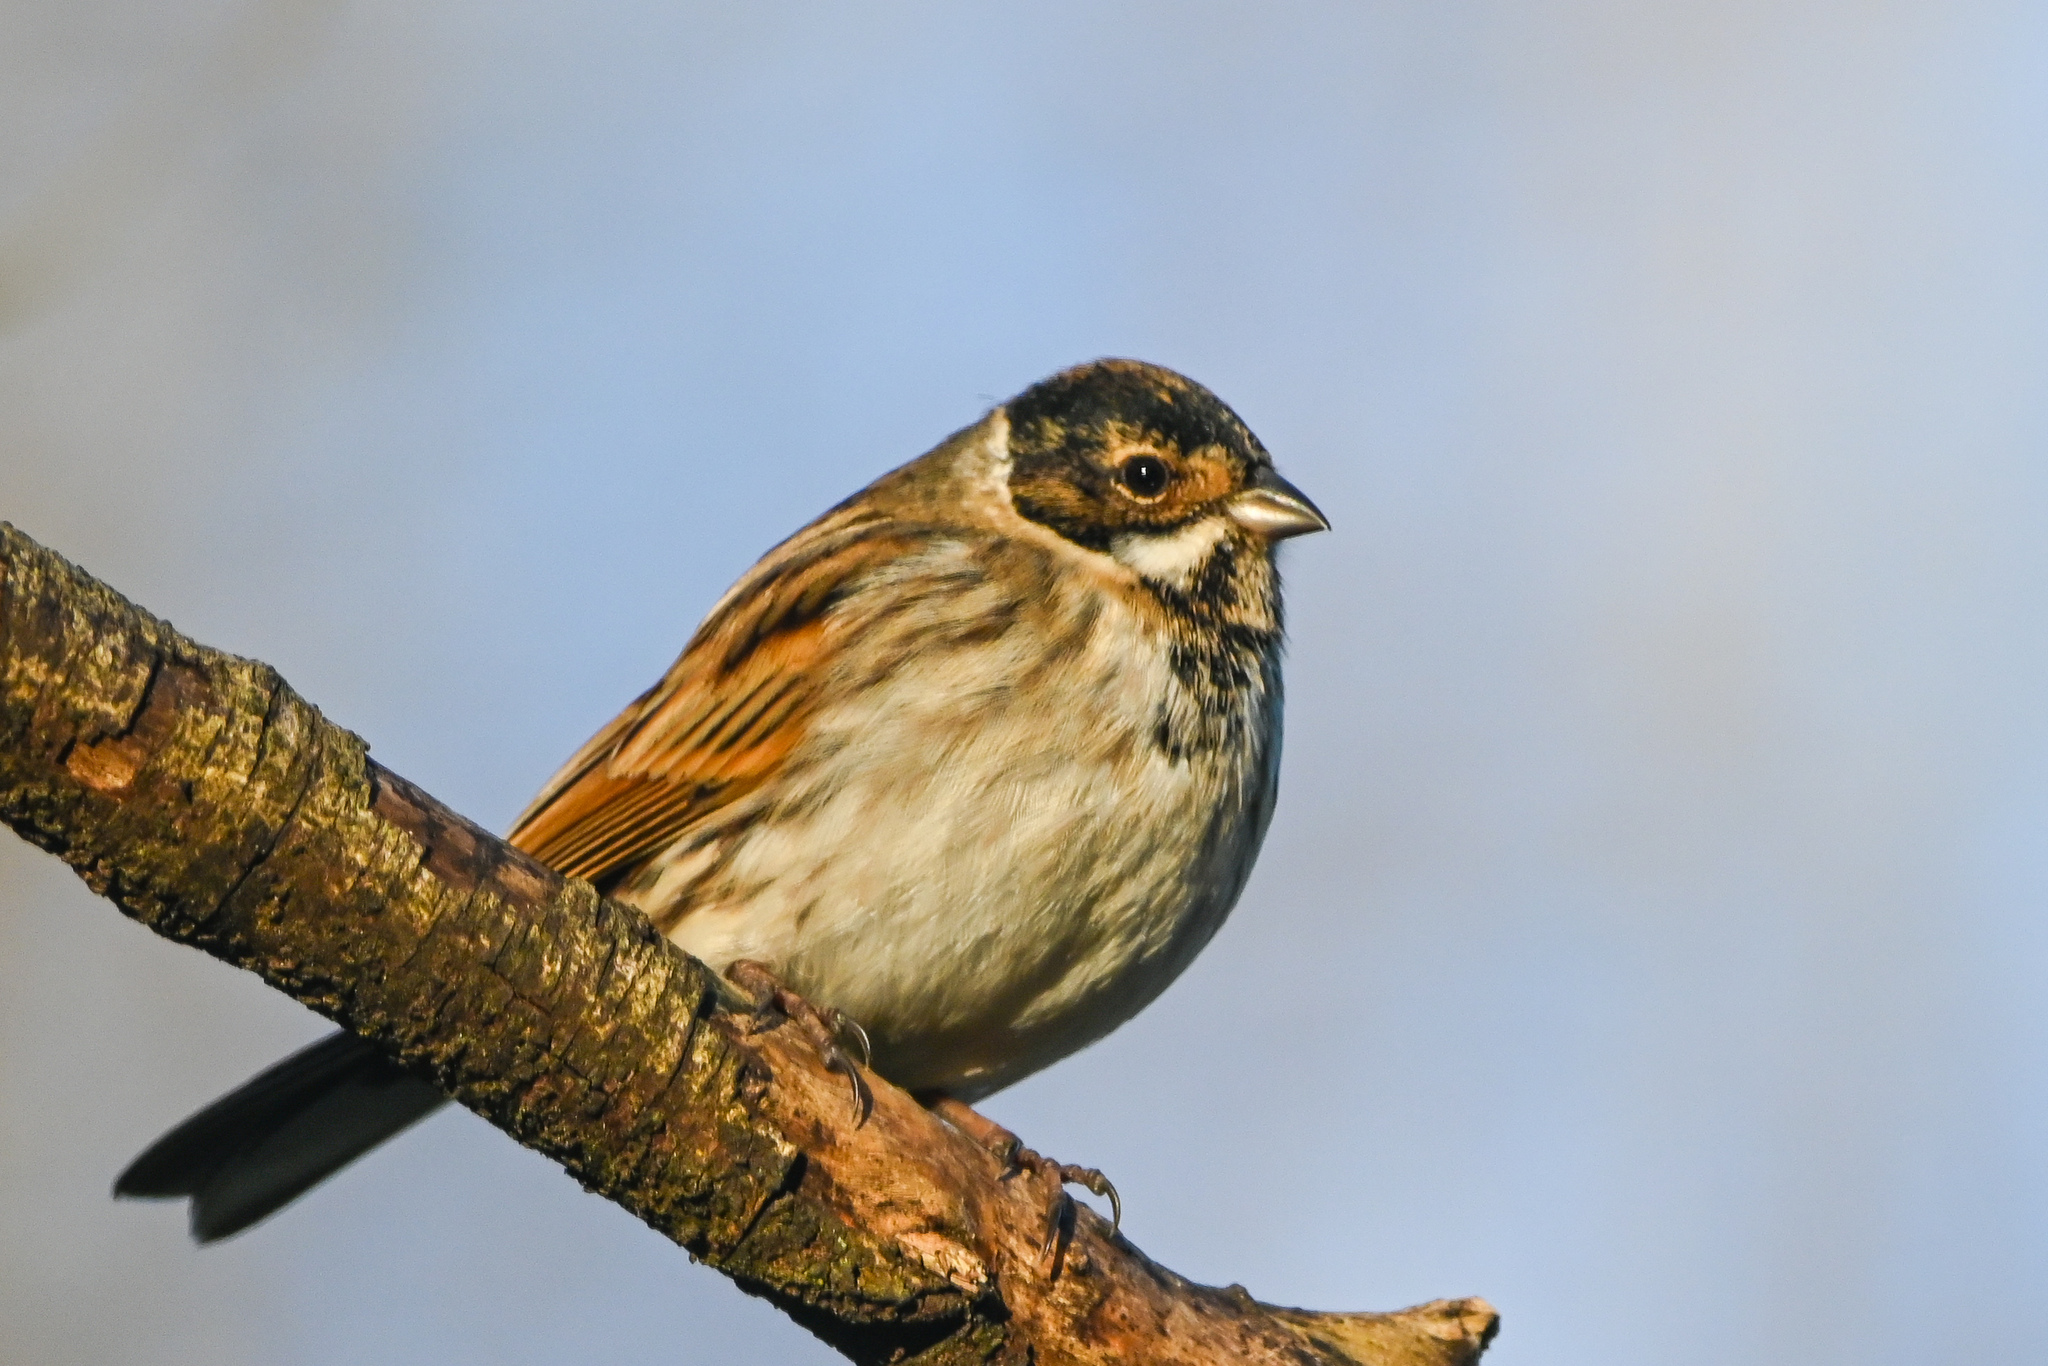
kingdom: Animalia
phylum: Chordata
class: Aves
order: Passeriformes
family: Emberizidae
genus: Emberiza
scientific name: Emberiza schoeniclus
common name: Reed bunting
